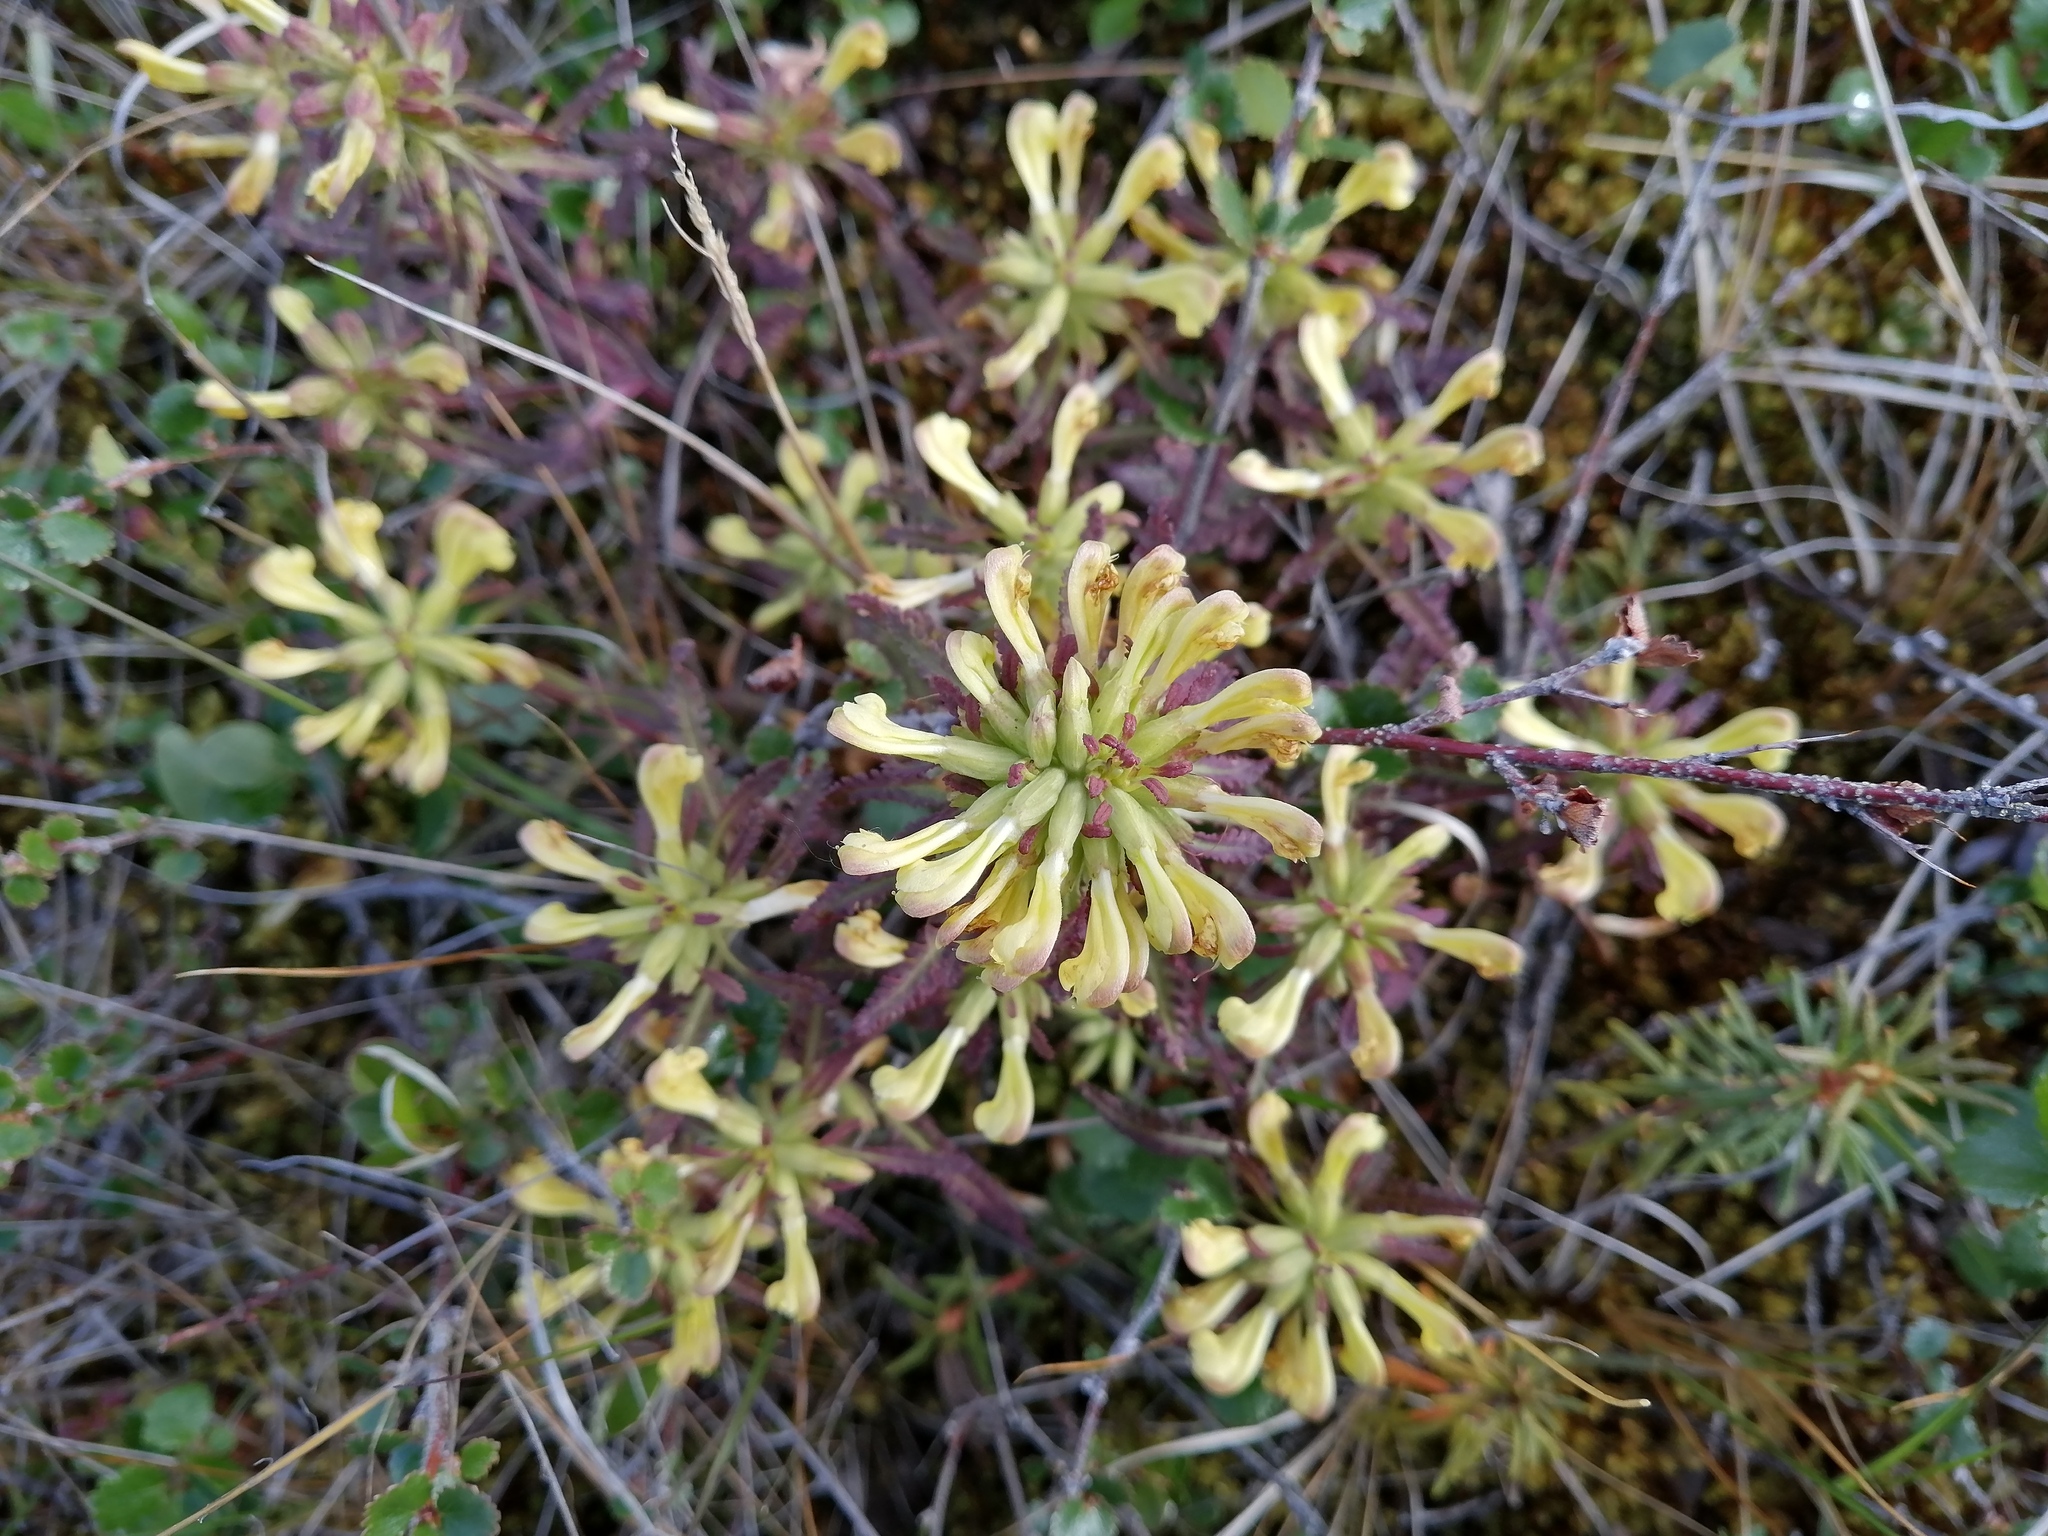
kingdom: Plantae
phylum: Tracheophyta
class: Magnoliopsida
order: Lamiales
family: Orobanchaceae
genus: Pedicularis
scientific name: Pedicularis labradorica
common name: Labrador lousewort
